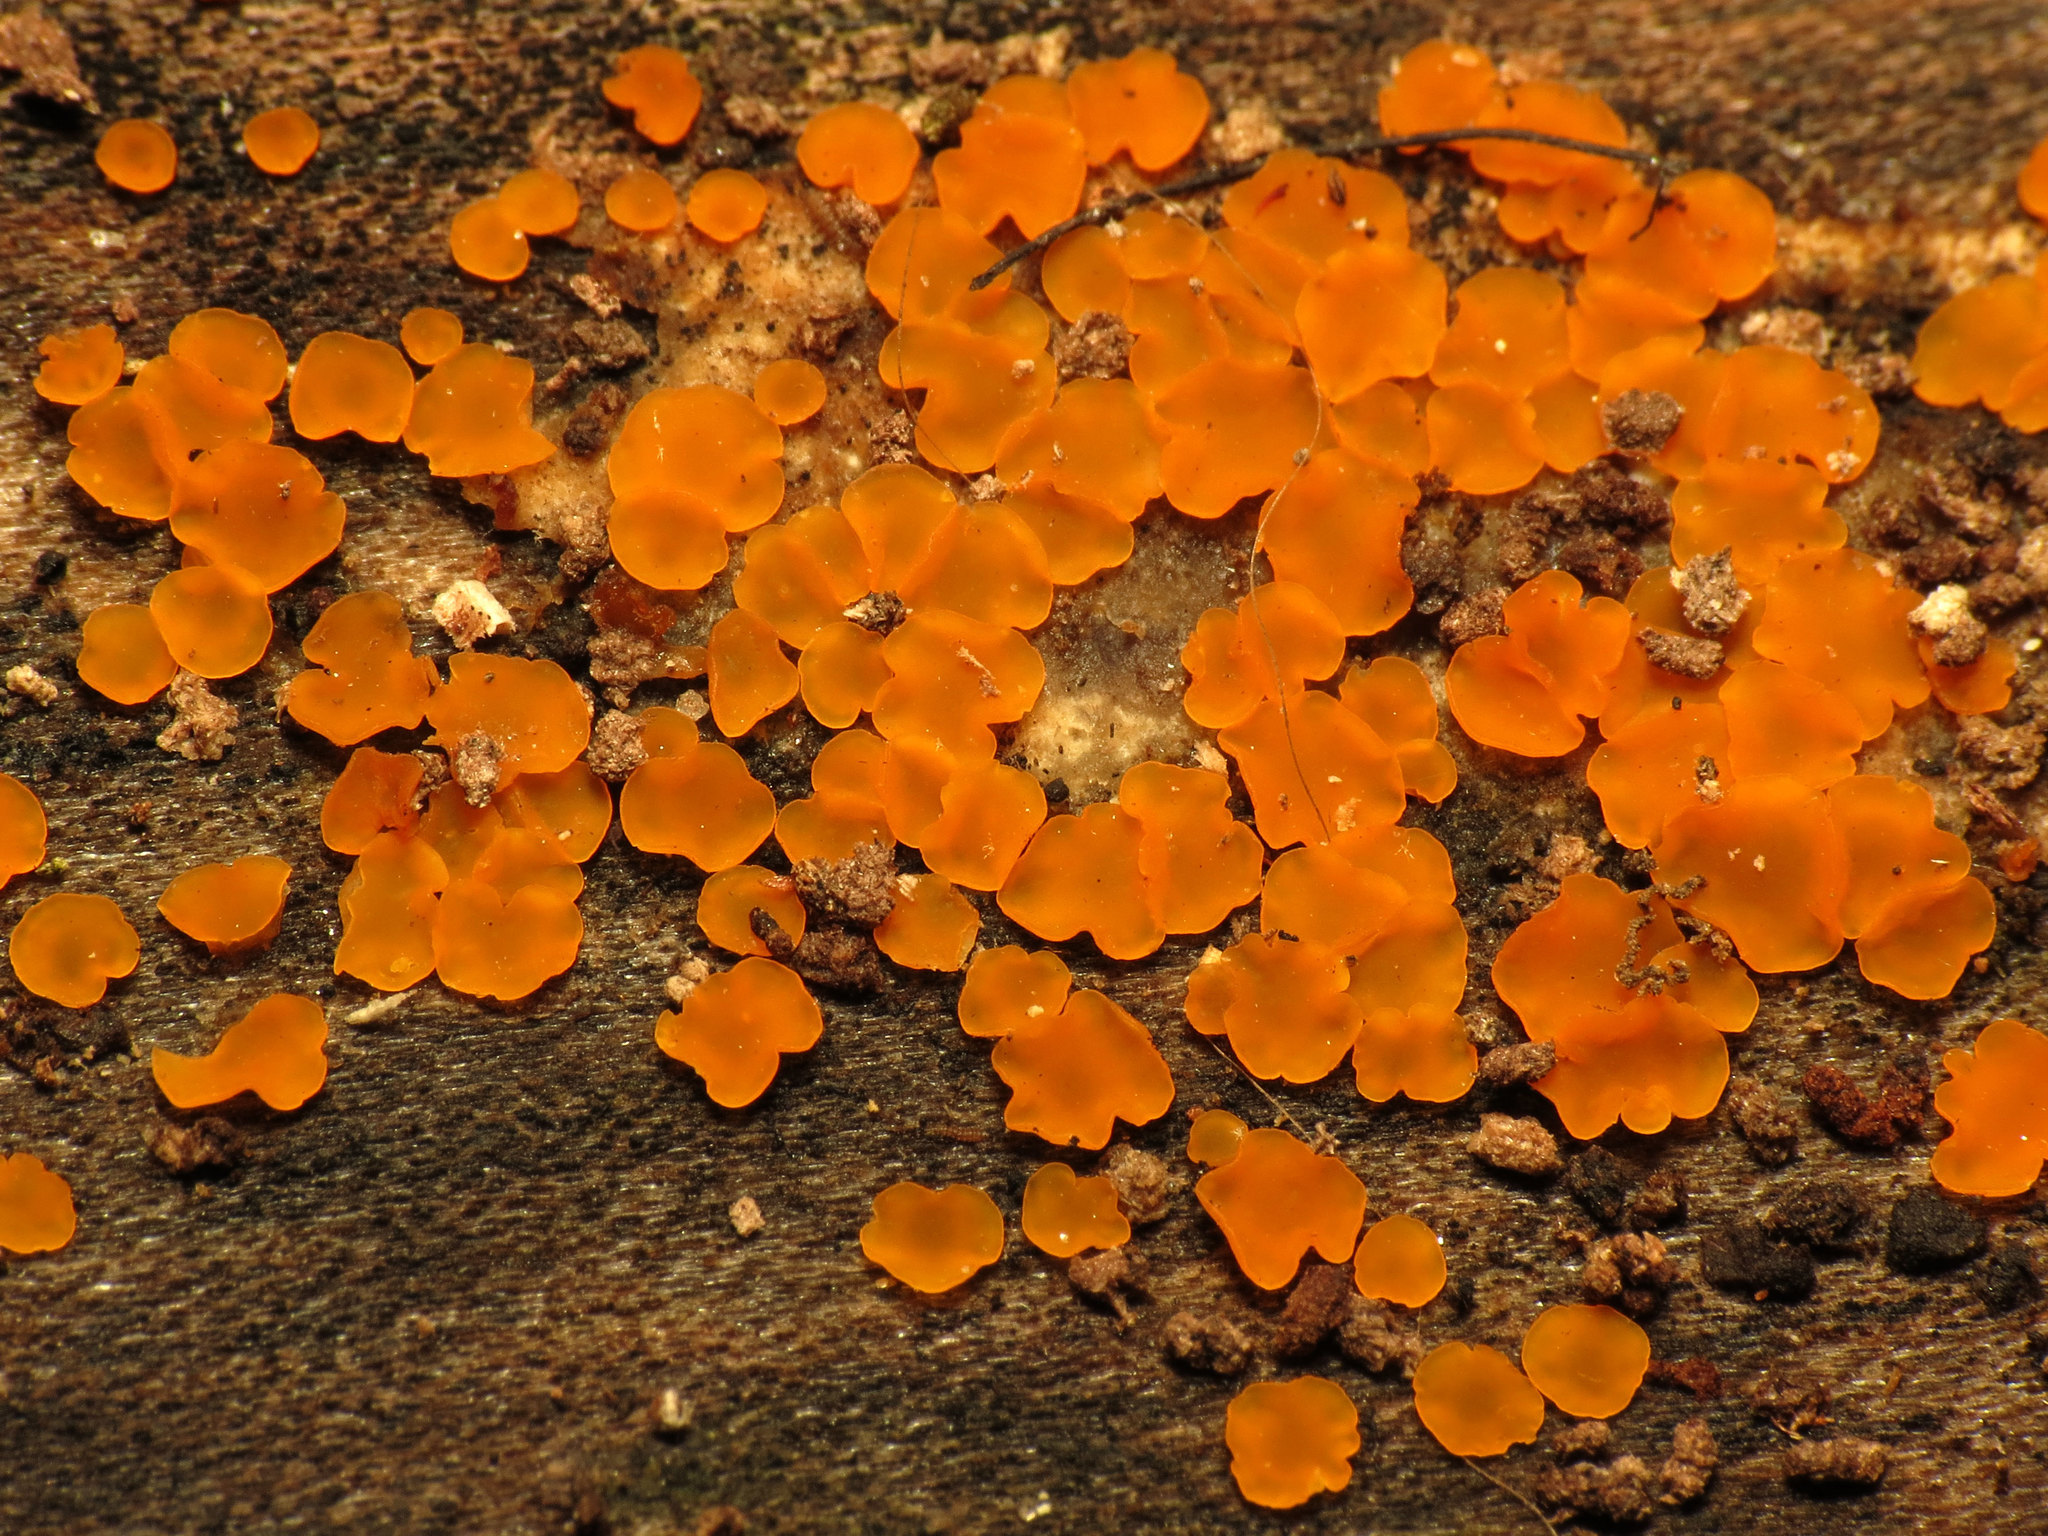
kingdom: Fungi
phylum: Ascomycota
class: Orbiliomycetes
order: Orbiliales
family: Orbiliaceae
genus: Orbilia
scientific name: Orbilia
